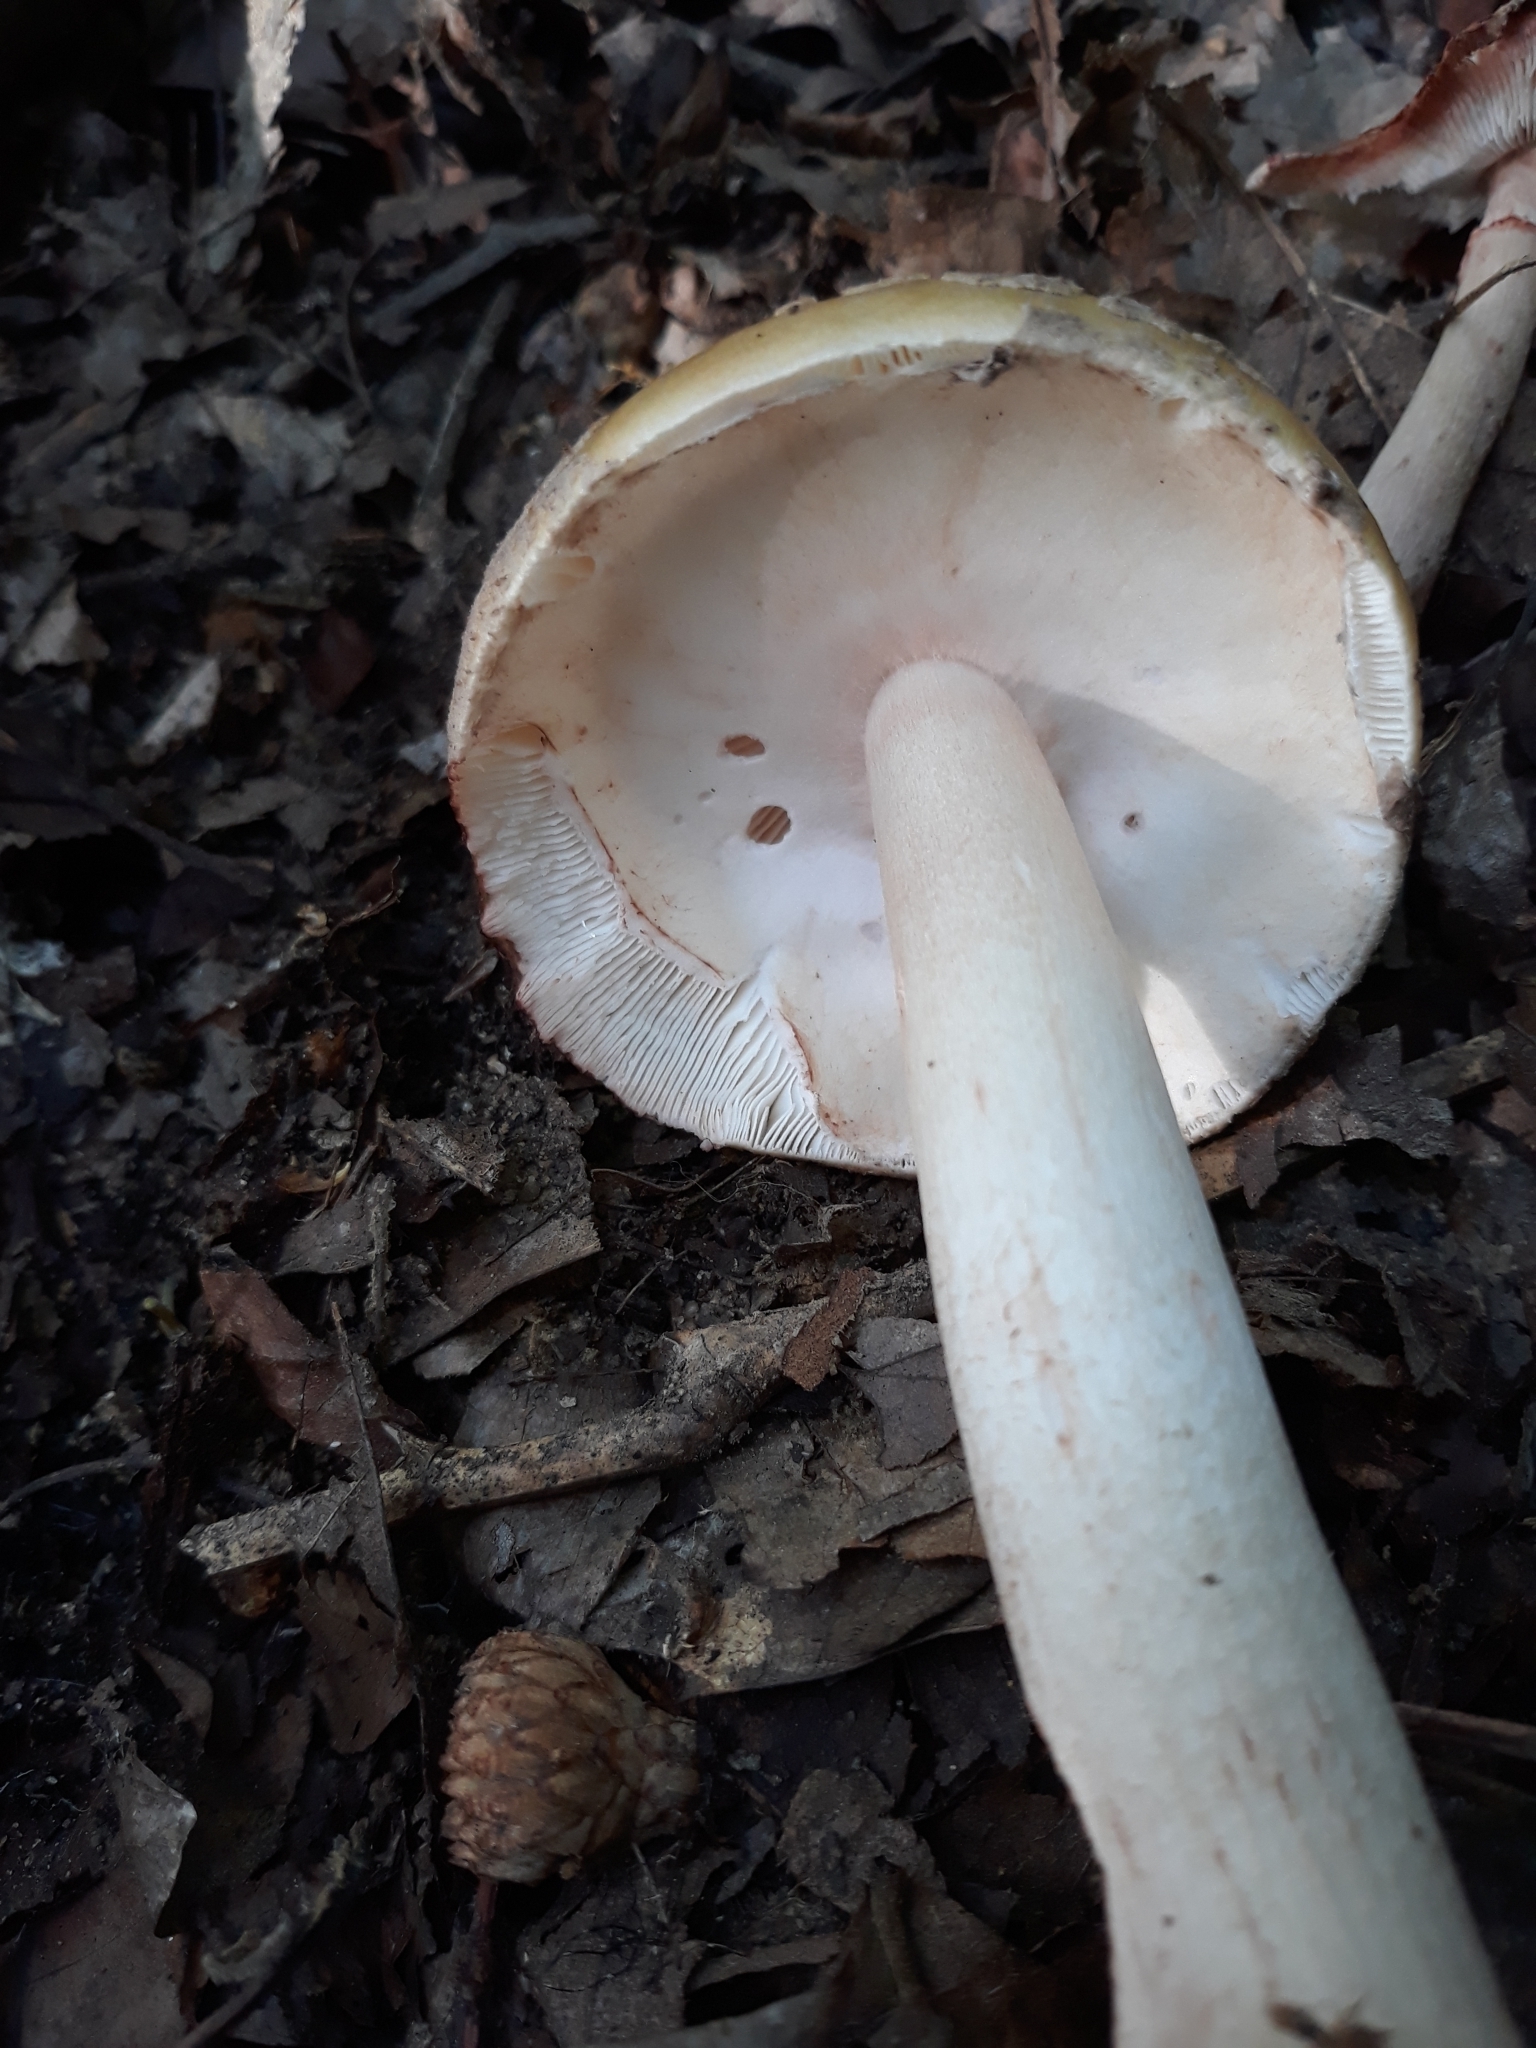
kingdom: Fungi
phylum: Basidiomycota
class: Agaricomycetes
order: Agaricales
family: Amanitaceae
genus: Amanita
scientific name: Amanita rubescens
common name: Blusher
